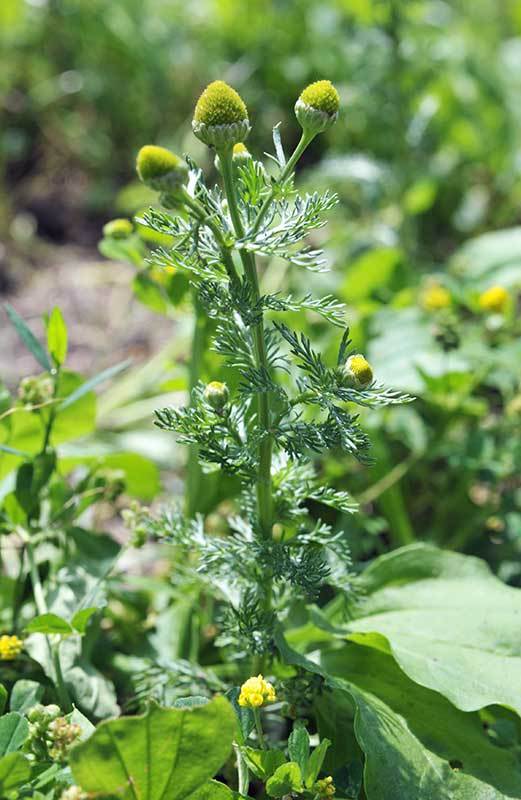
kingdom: Plantae
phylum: Tracheophyta
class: Magnoliopsida
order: Asterales
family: Asteraceae
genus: Matricaria
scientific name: Matricaria discoidea
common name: Disc mayweed
